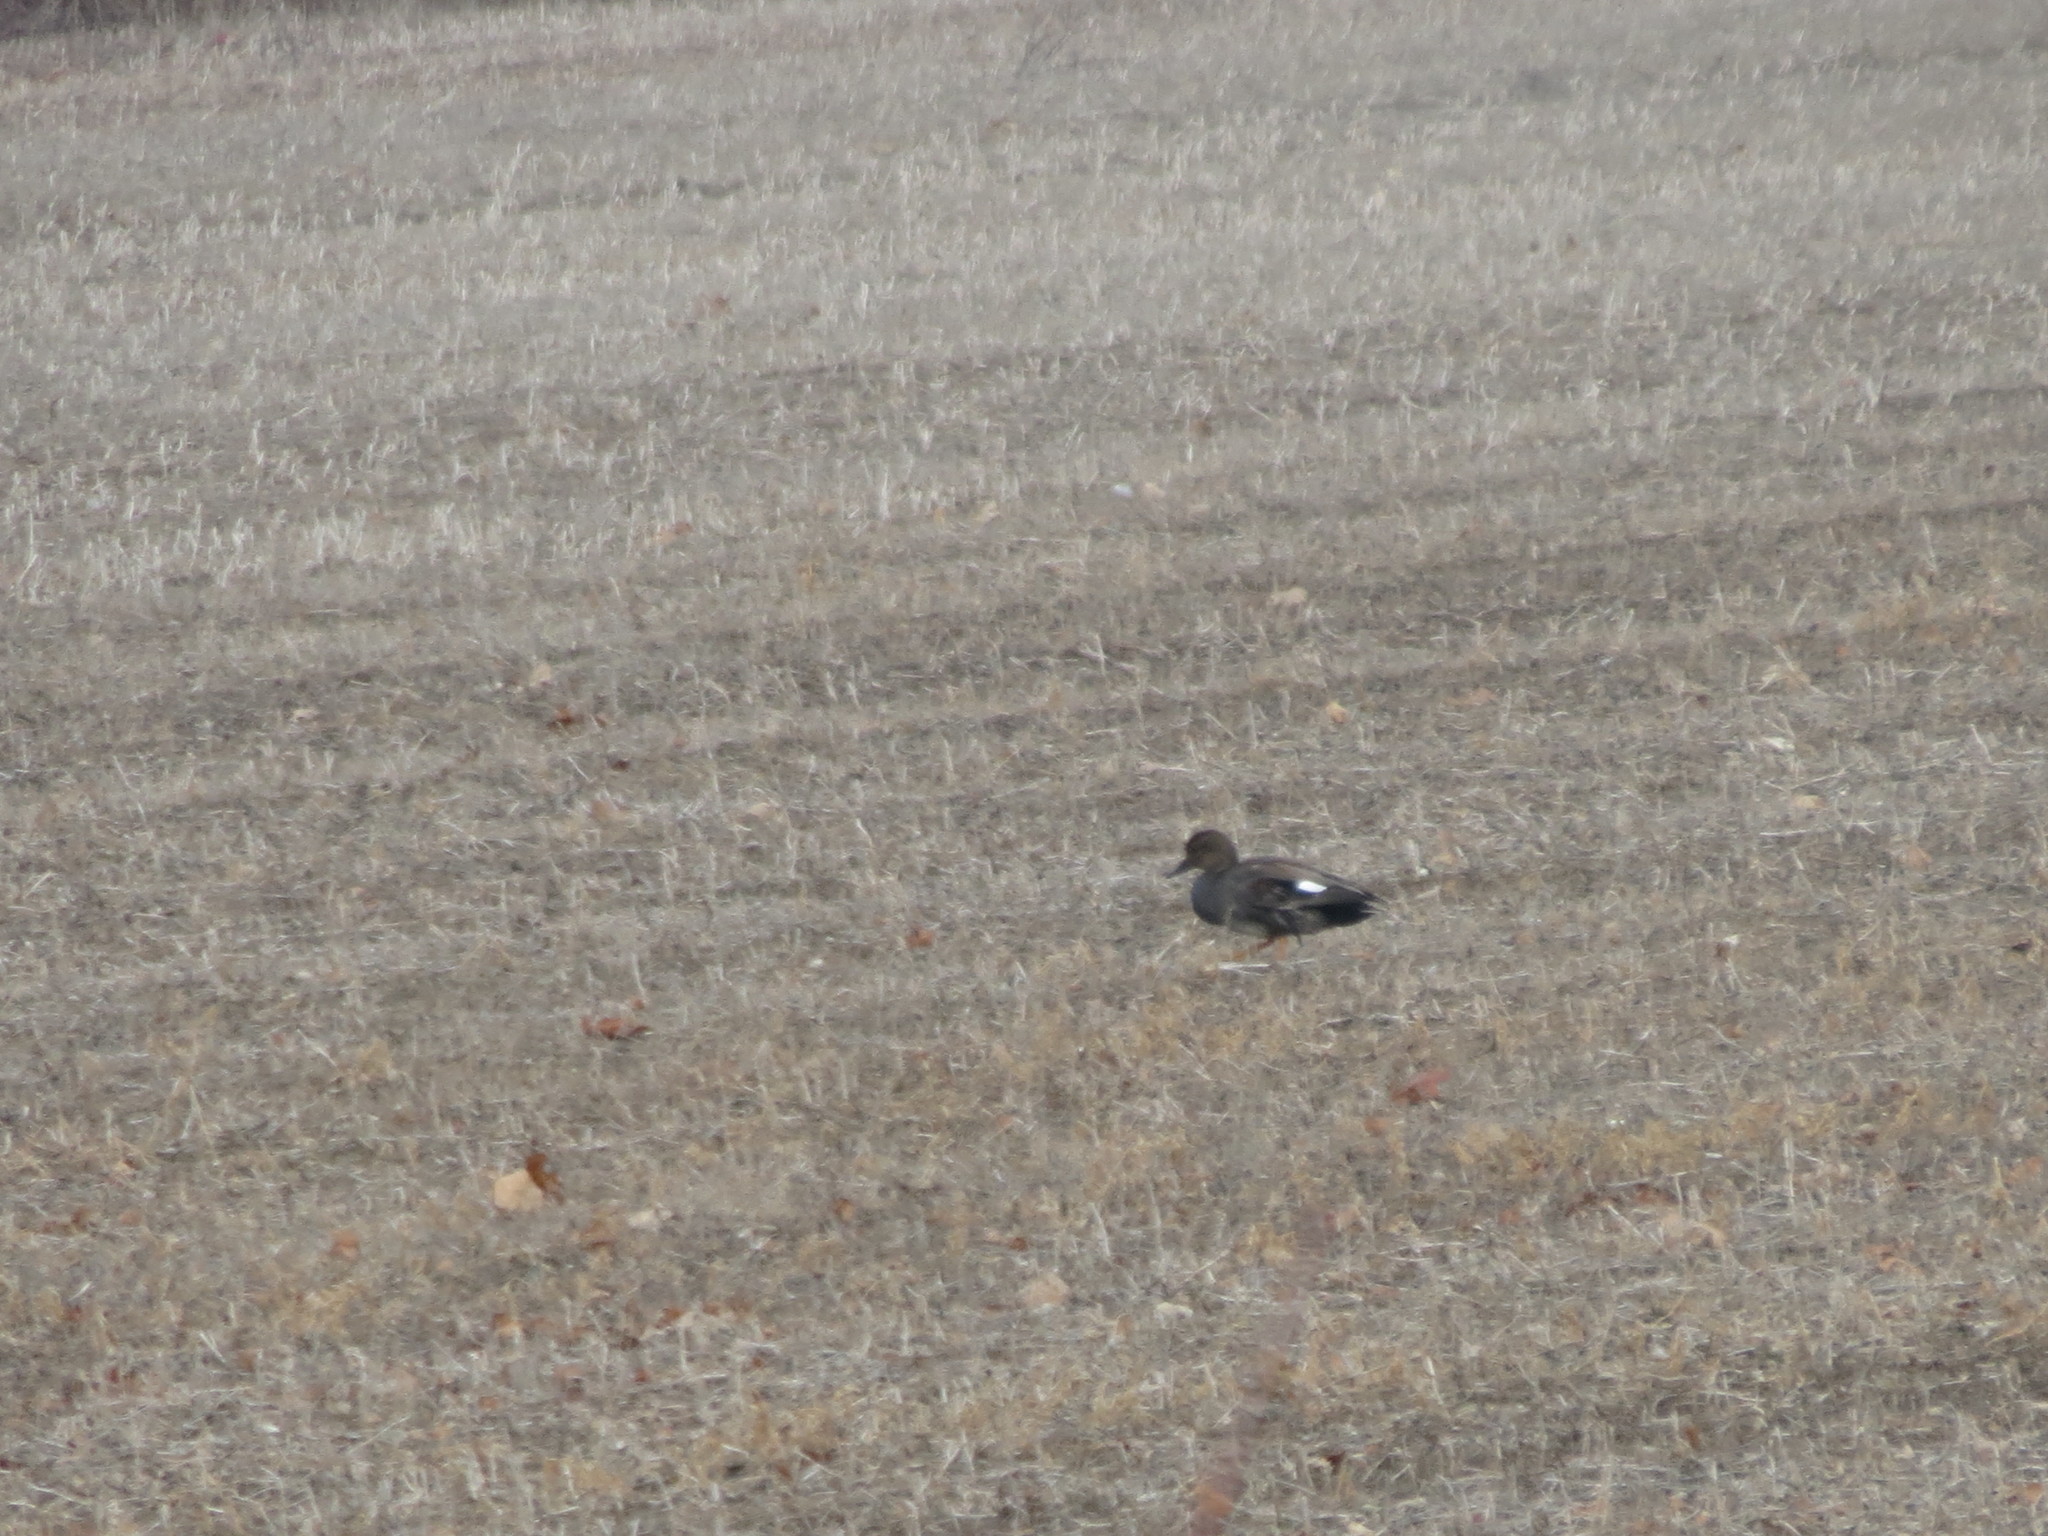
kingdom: Animalia
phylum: Chordata
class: Aves
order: Anseriformes
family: Anatidae
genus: Mareca
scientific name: Mareca strepera
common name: Gadwall
